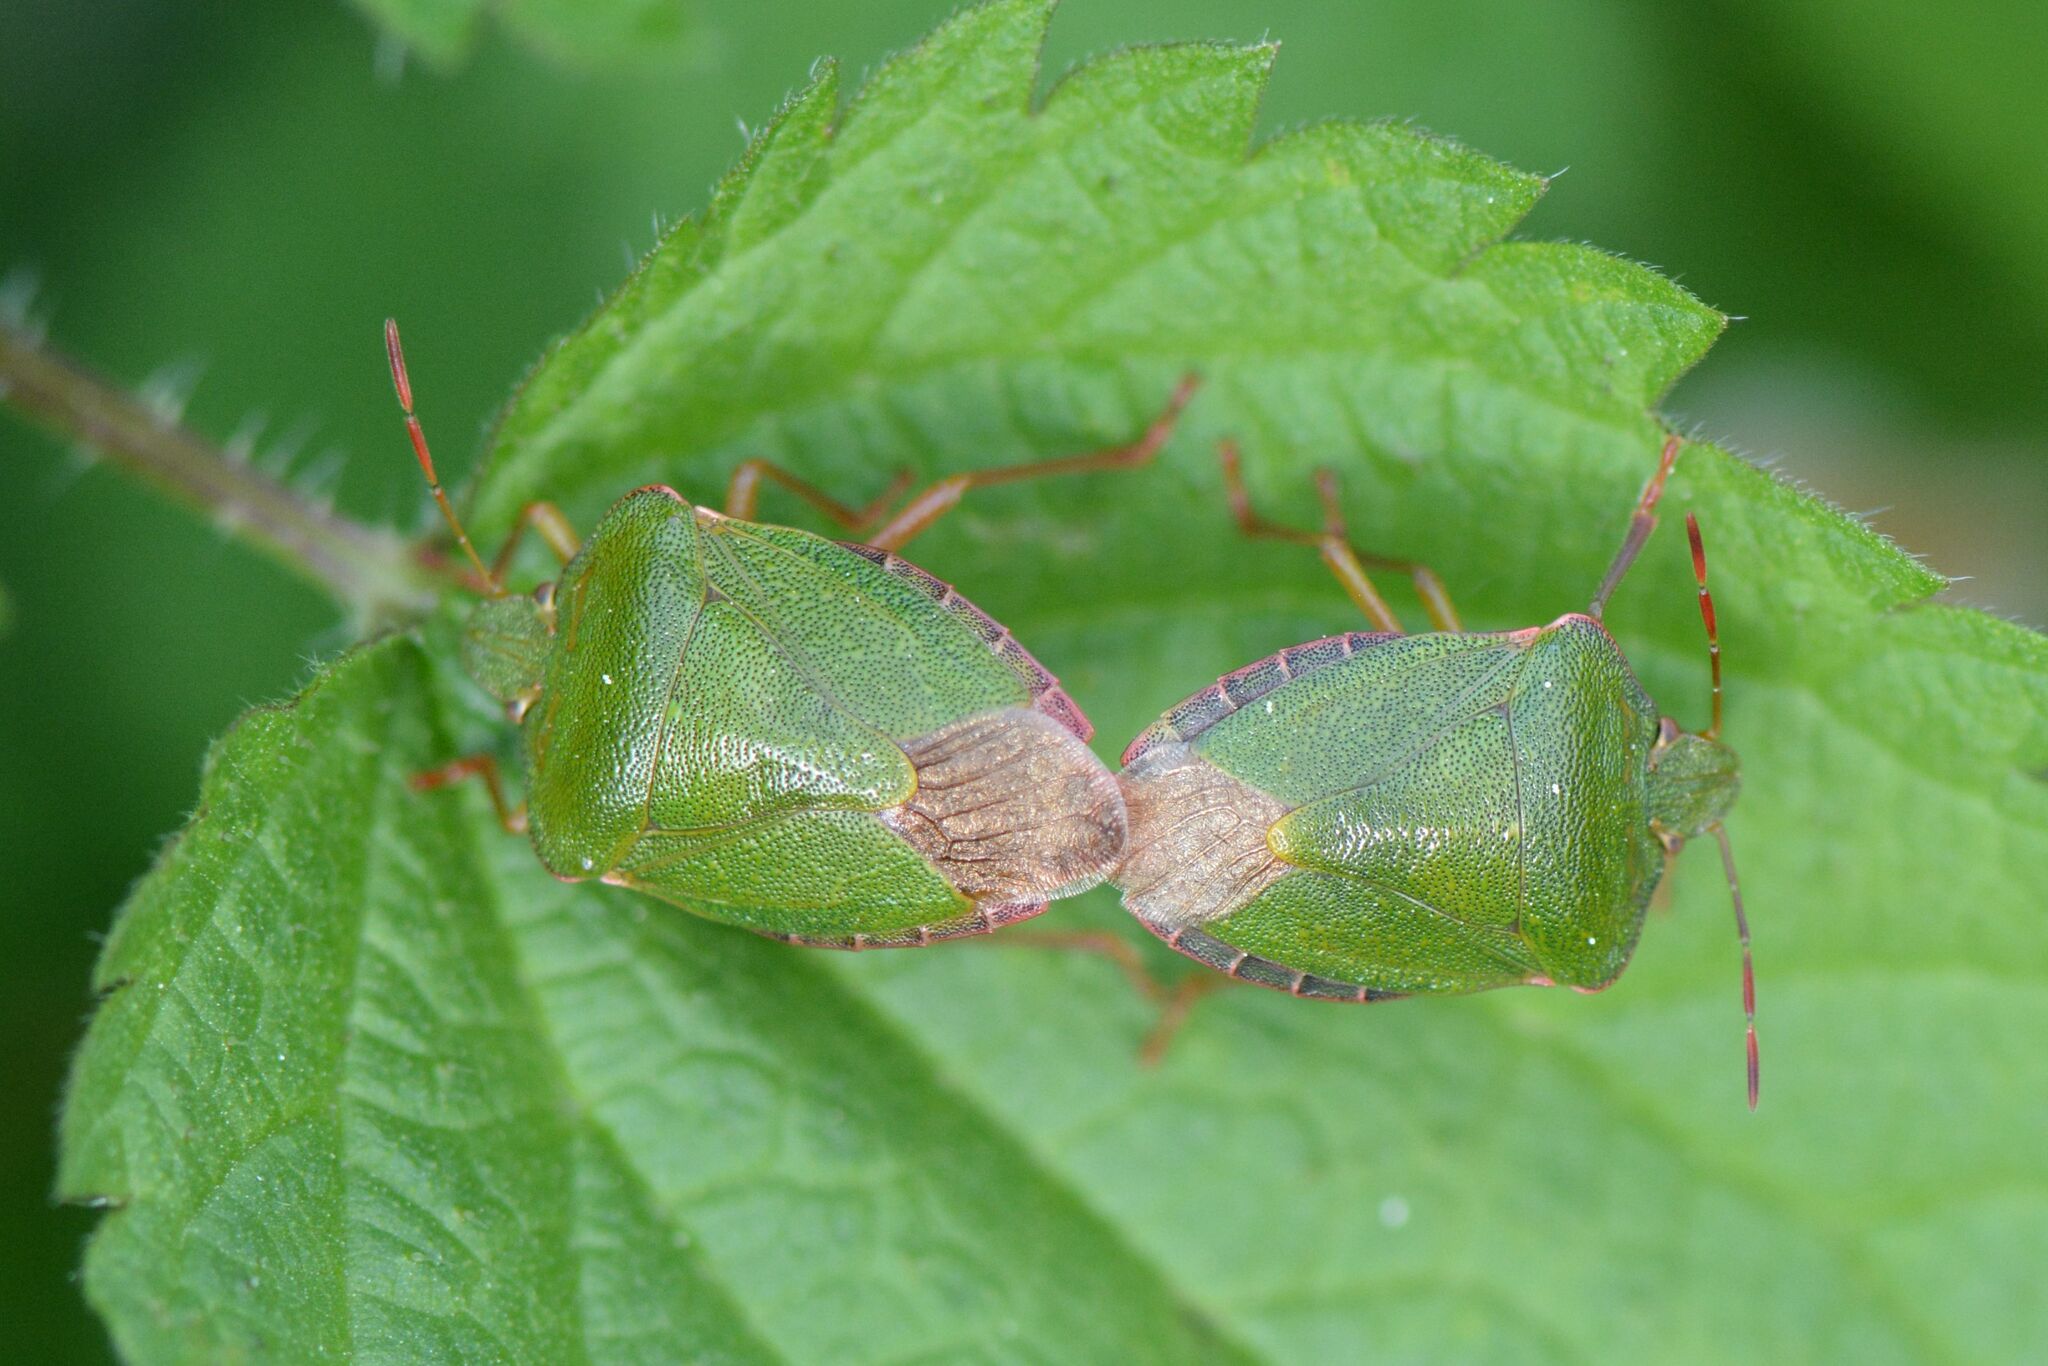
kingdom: Animalia
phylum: Arthropoda
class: Insecta
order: Hemiptera
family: Pentatomidae
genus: Palomena
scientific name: Palomena prasina
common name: Green shieldbug
